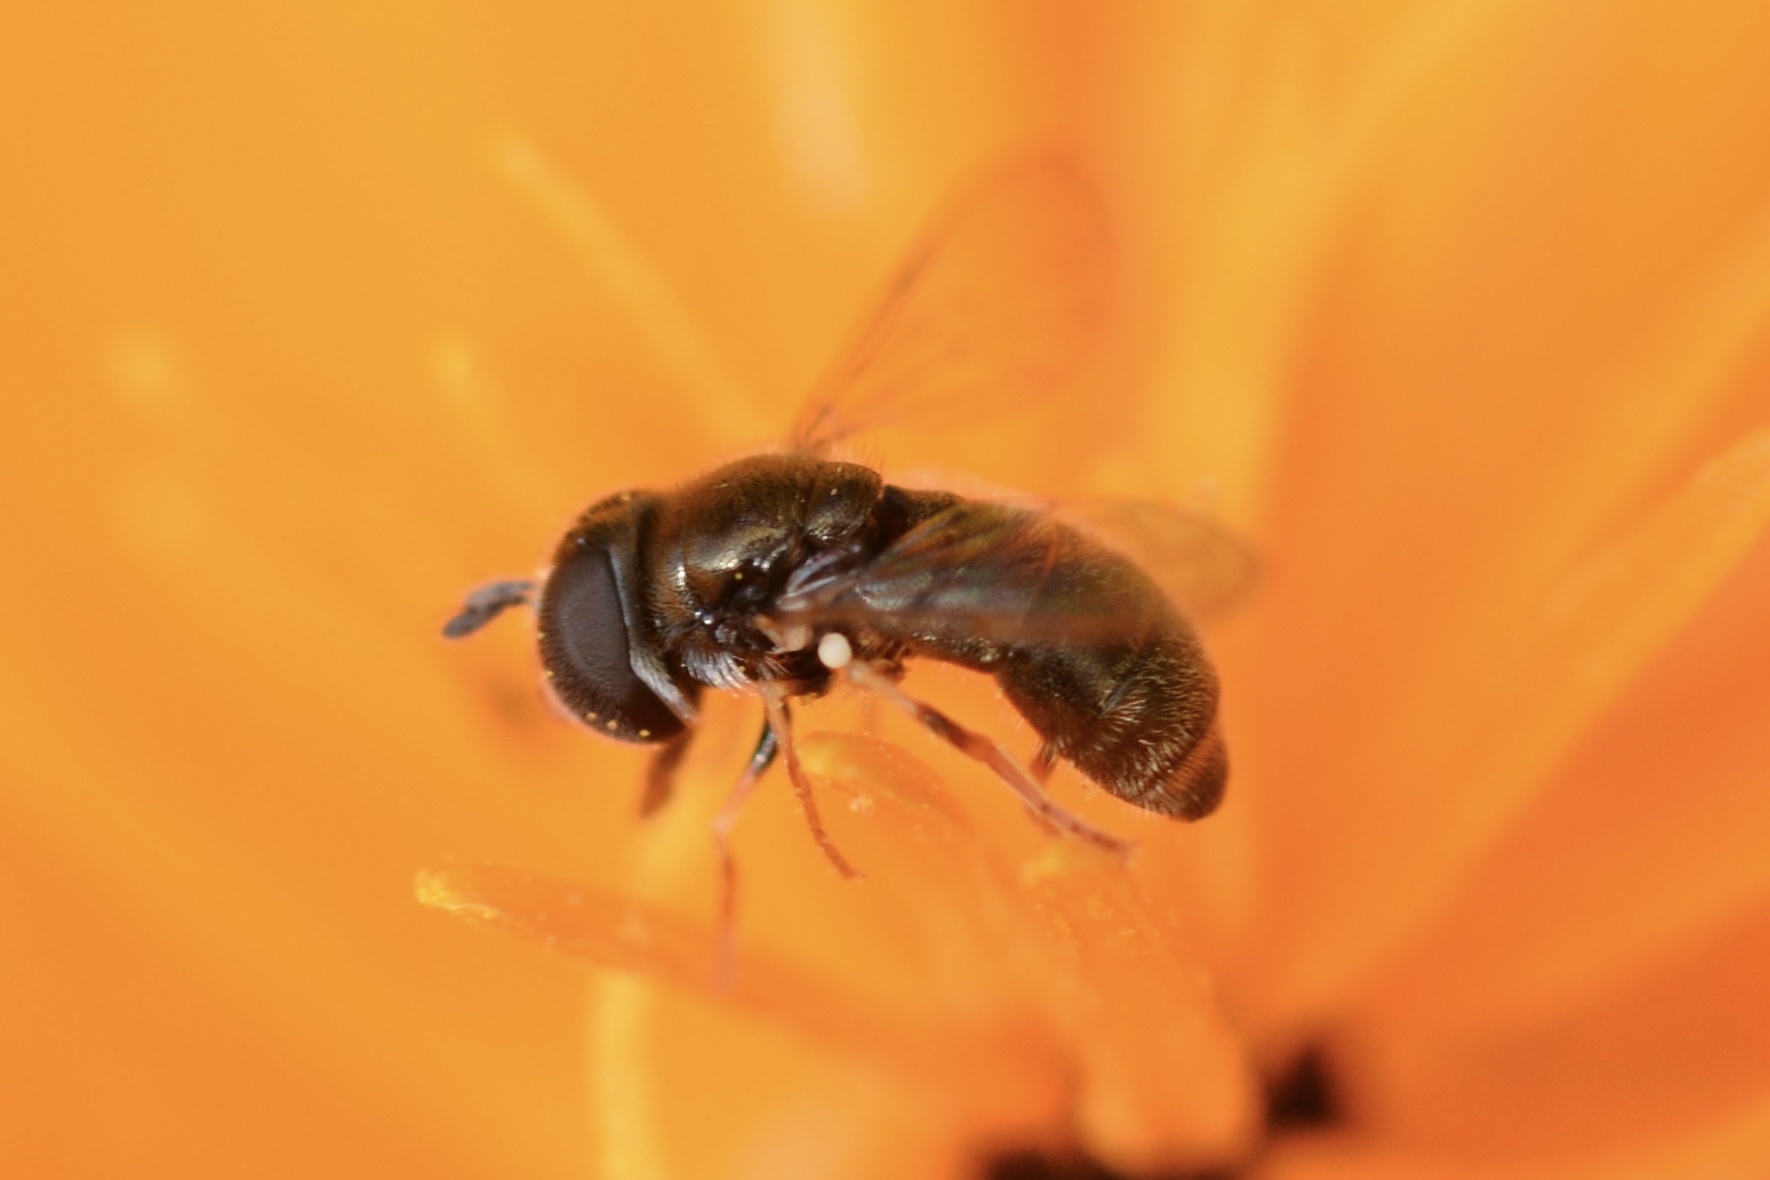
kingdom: Animalia
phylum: Arthropoda
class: Insecta
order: Diptera
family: Syrphidae
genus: Paragus
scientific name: Paragus haemorrhous
